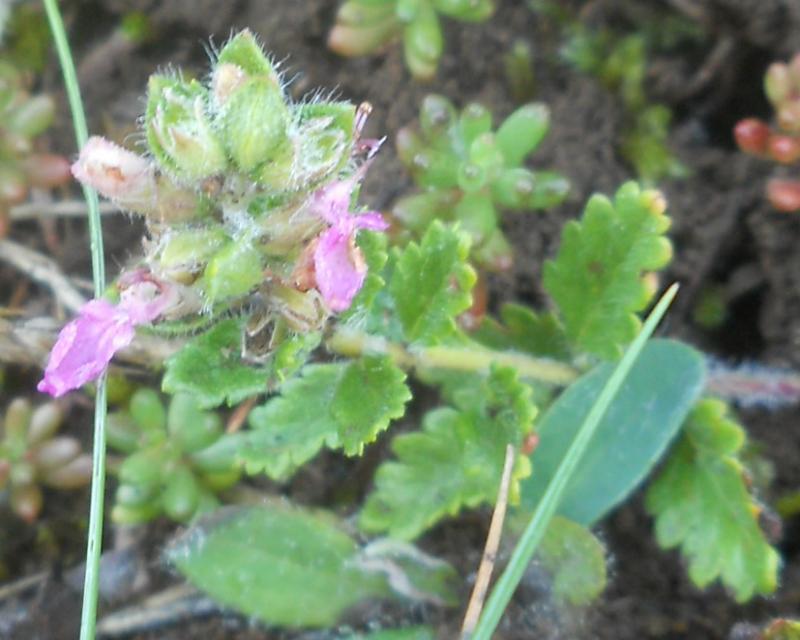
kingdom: Plantae
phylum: Tracheophyta
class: Magnoliopsida
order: Lamiales
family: Lamiaceae
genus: Teucrium
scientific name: Teucrium chamaedrys
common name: Wall germander
